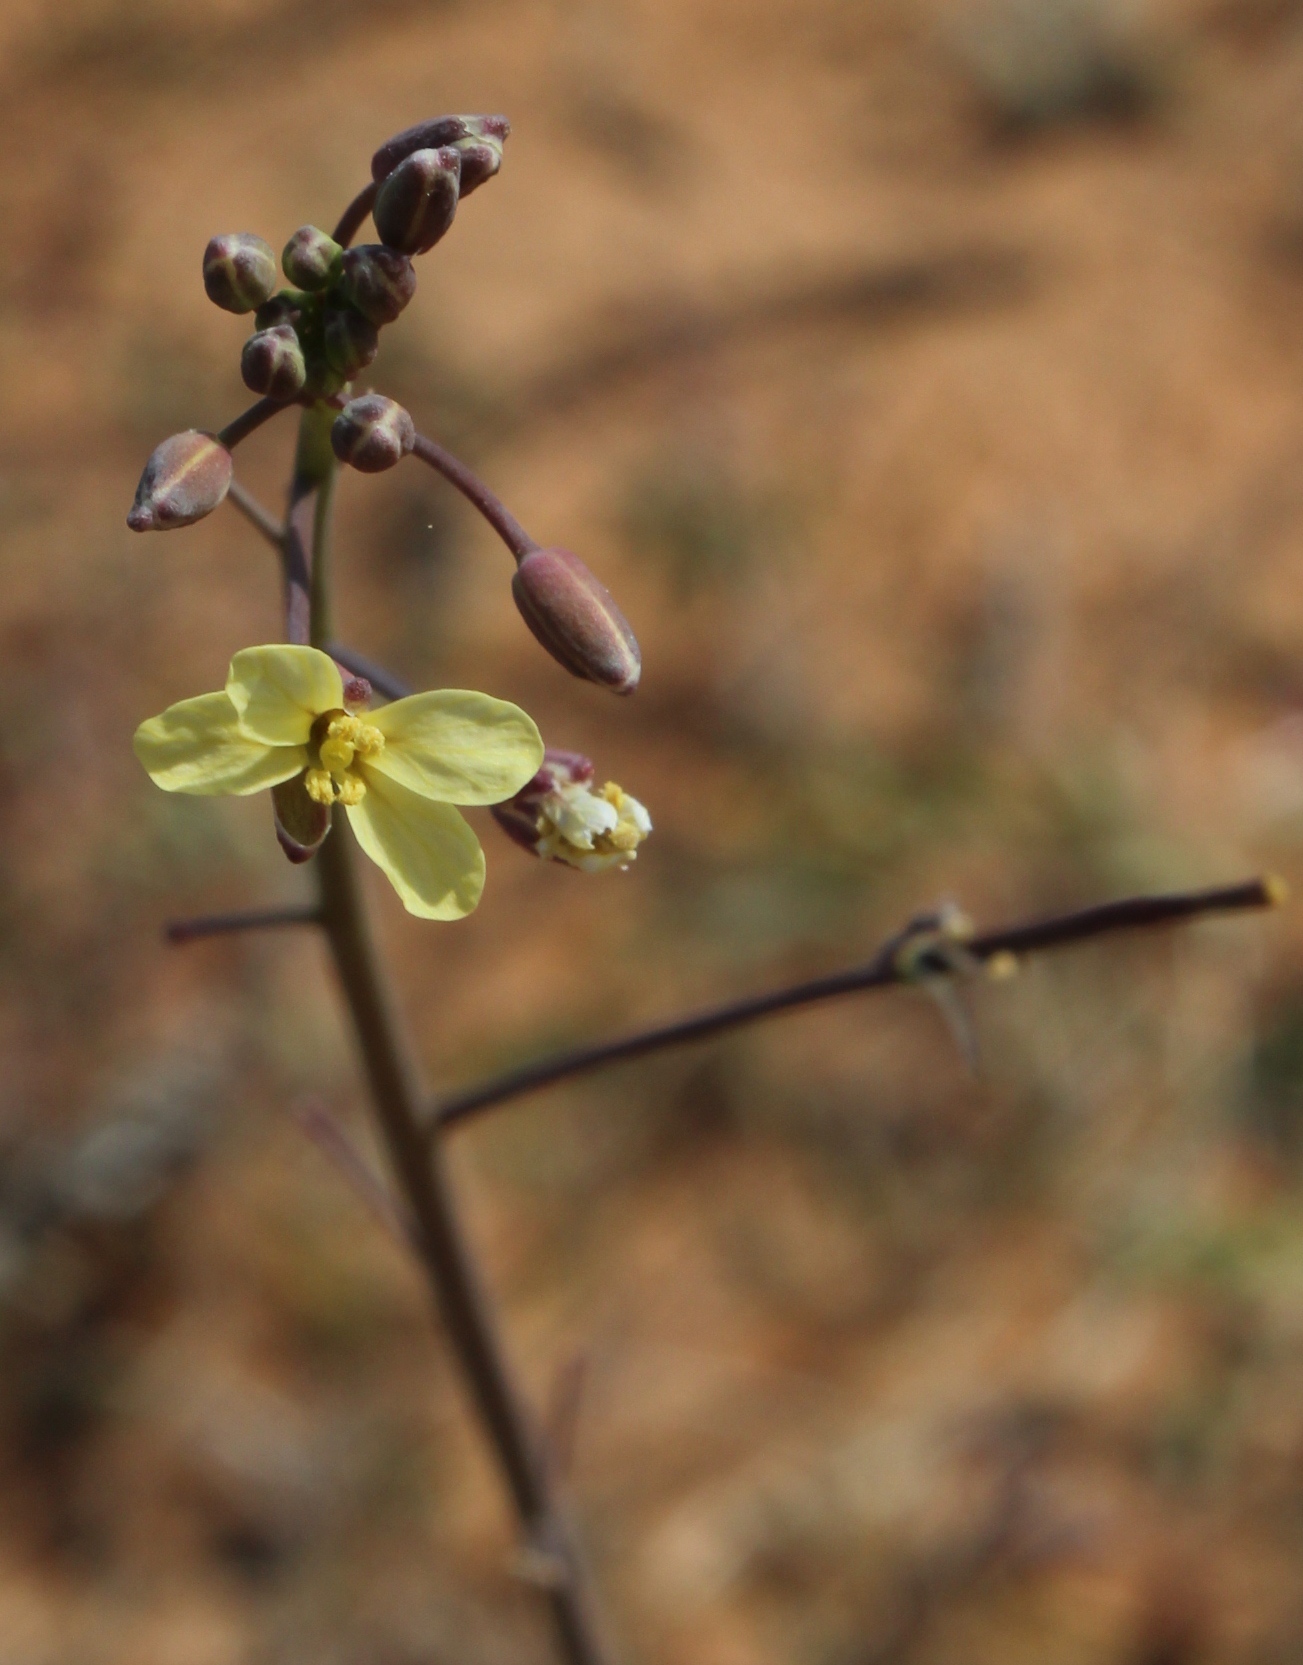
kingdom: Plantae
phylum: Tracheophyta
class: Magnoliopsida
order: Brassicales
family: Brassicaceae
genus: Brassica
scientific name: Brassica tournefortii
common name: Pale cabbage
